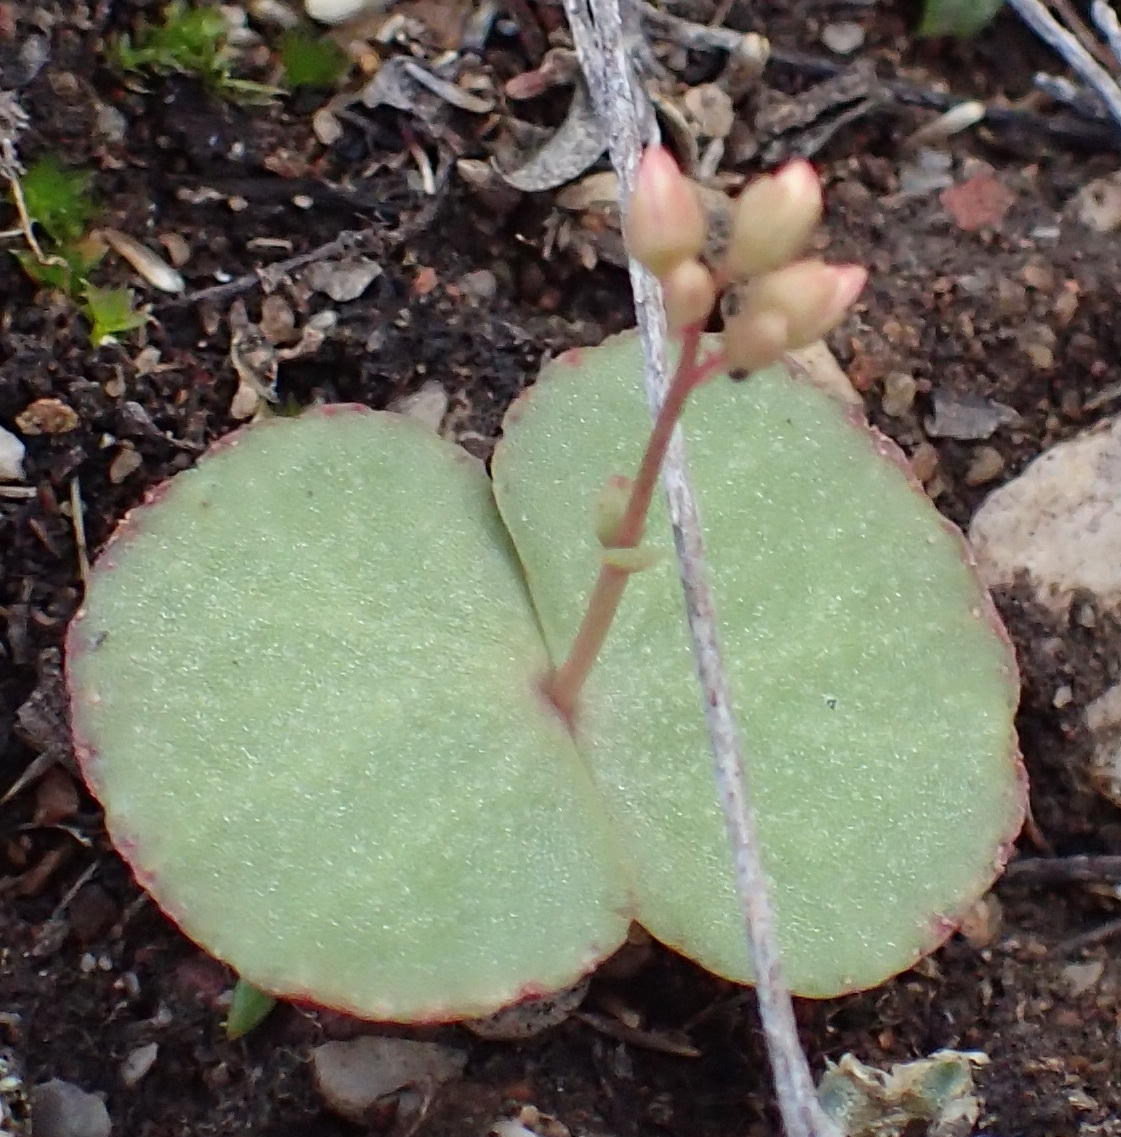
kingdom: Plantae
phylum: Tracheophyta
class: Magnoliopsida
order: Saxifragales
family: Crassulaceae
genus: Crassula
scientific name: Crassula umbella
